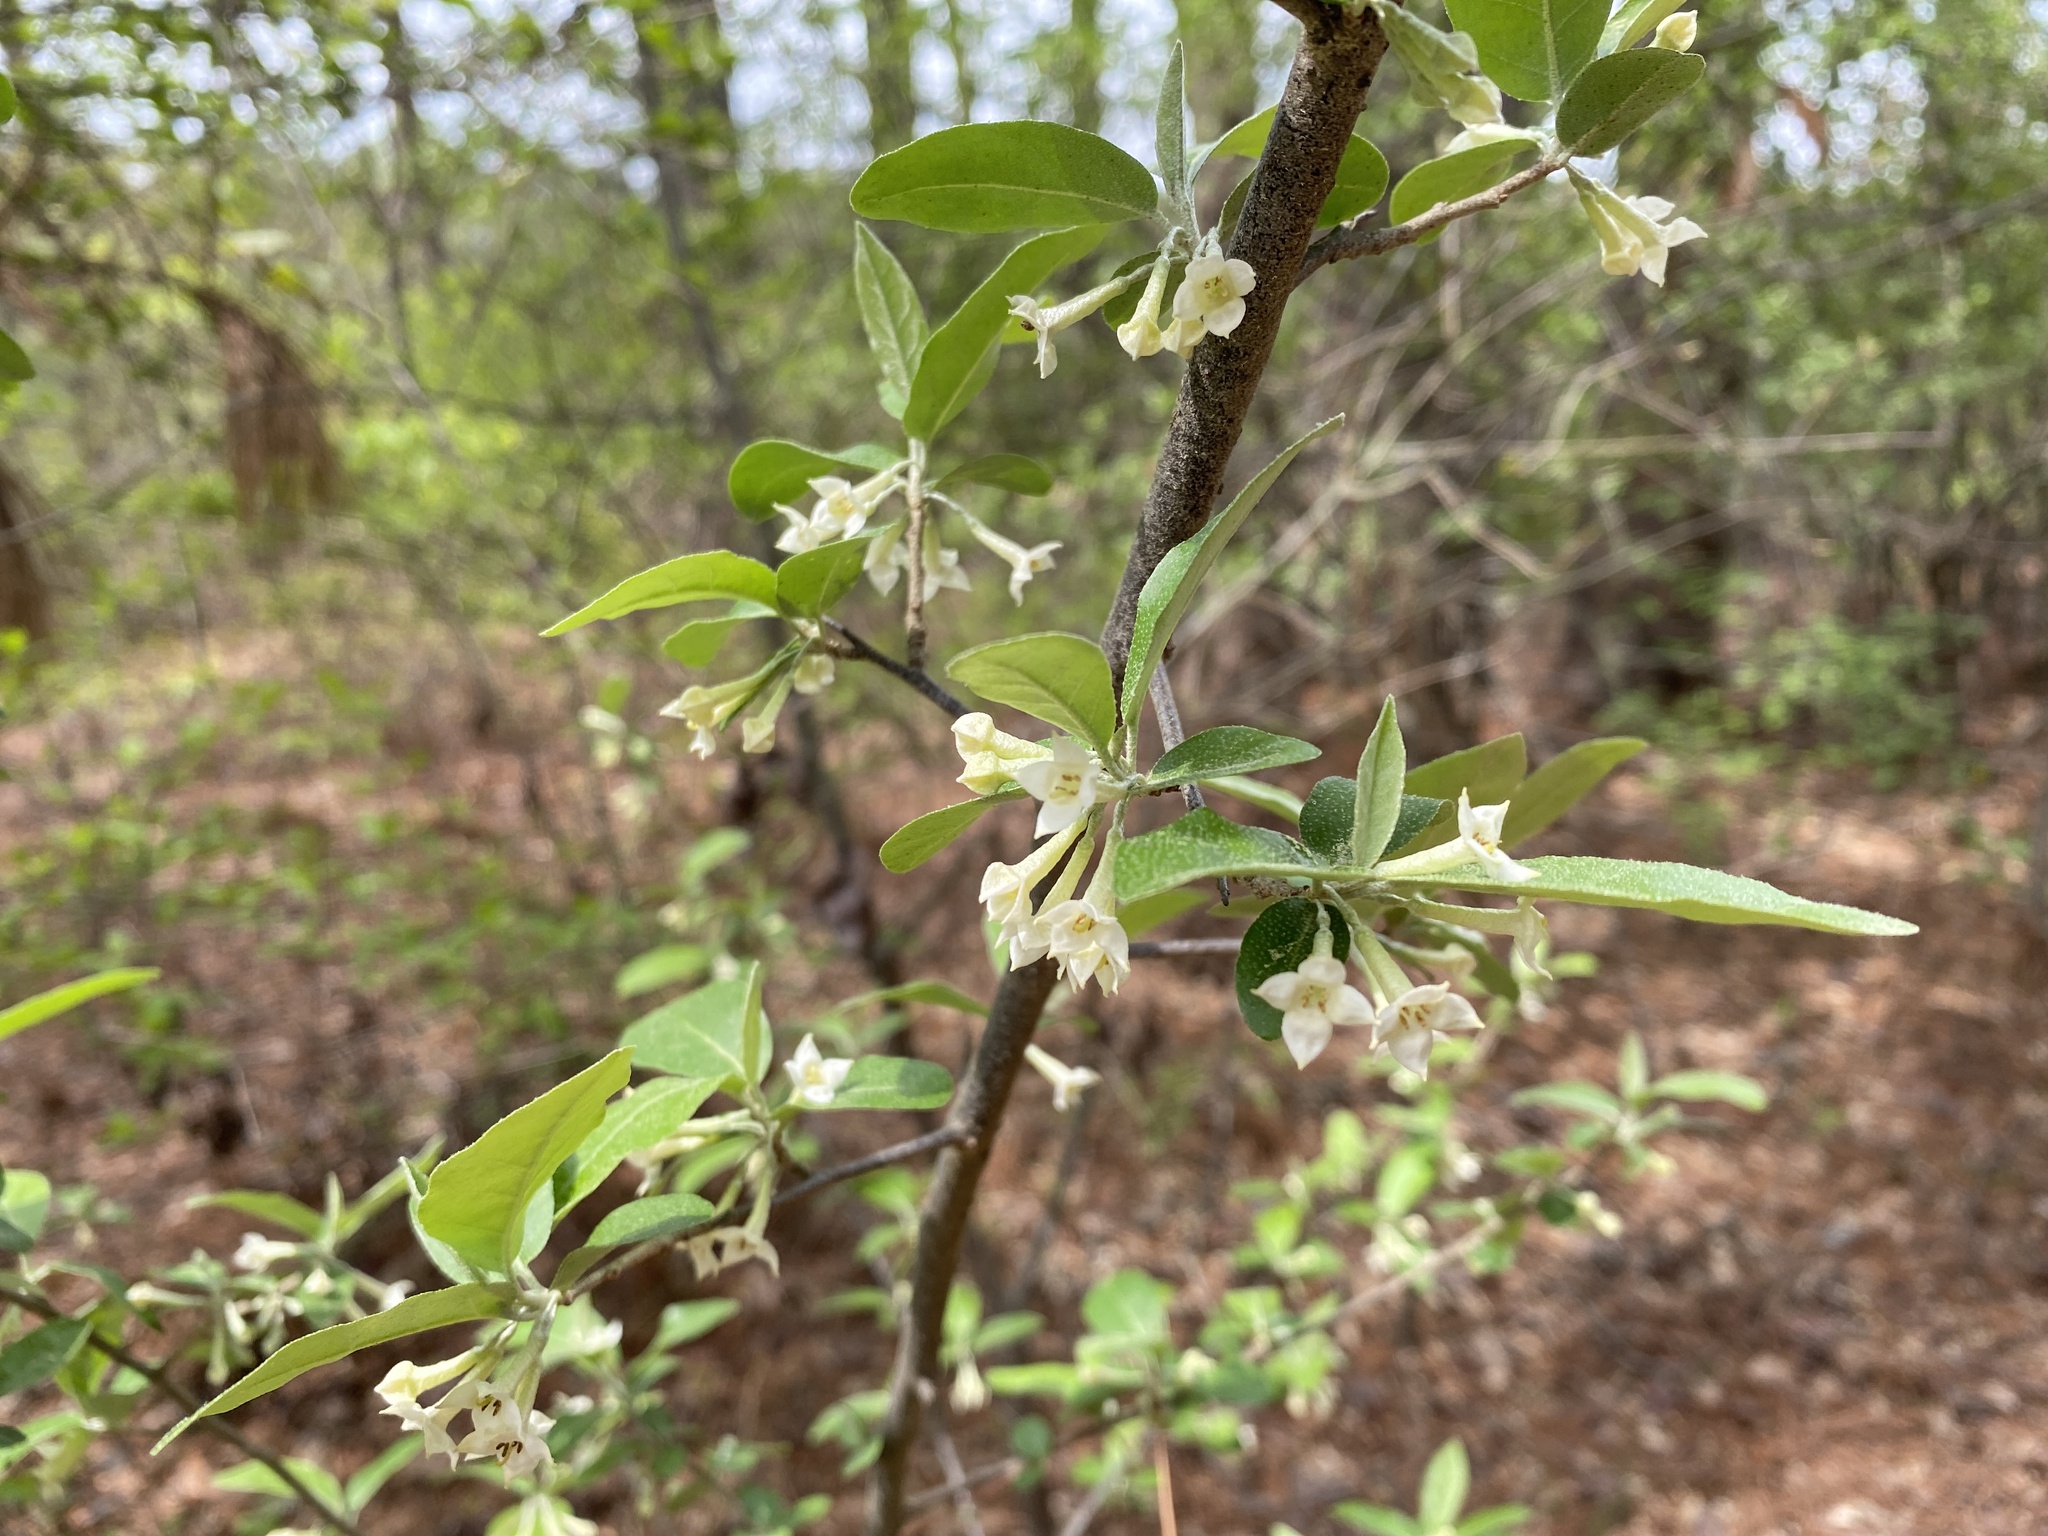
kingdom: Plantae
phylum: Tracheophyta
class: Magnoliopsida
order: Rosales
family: Elaeagnaceae
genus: Elaeagnus
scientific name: Elaeagnus umbellata
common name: Autumn olive
